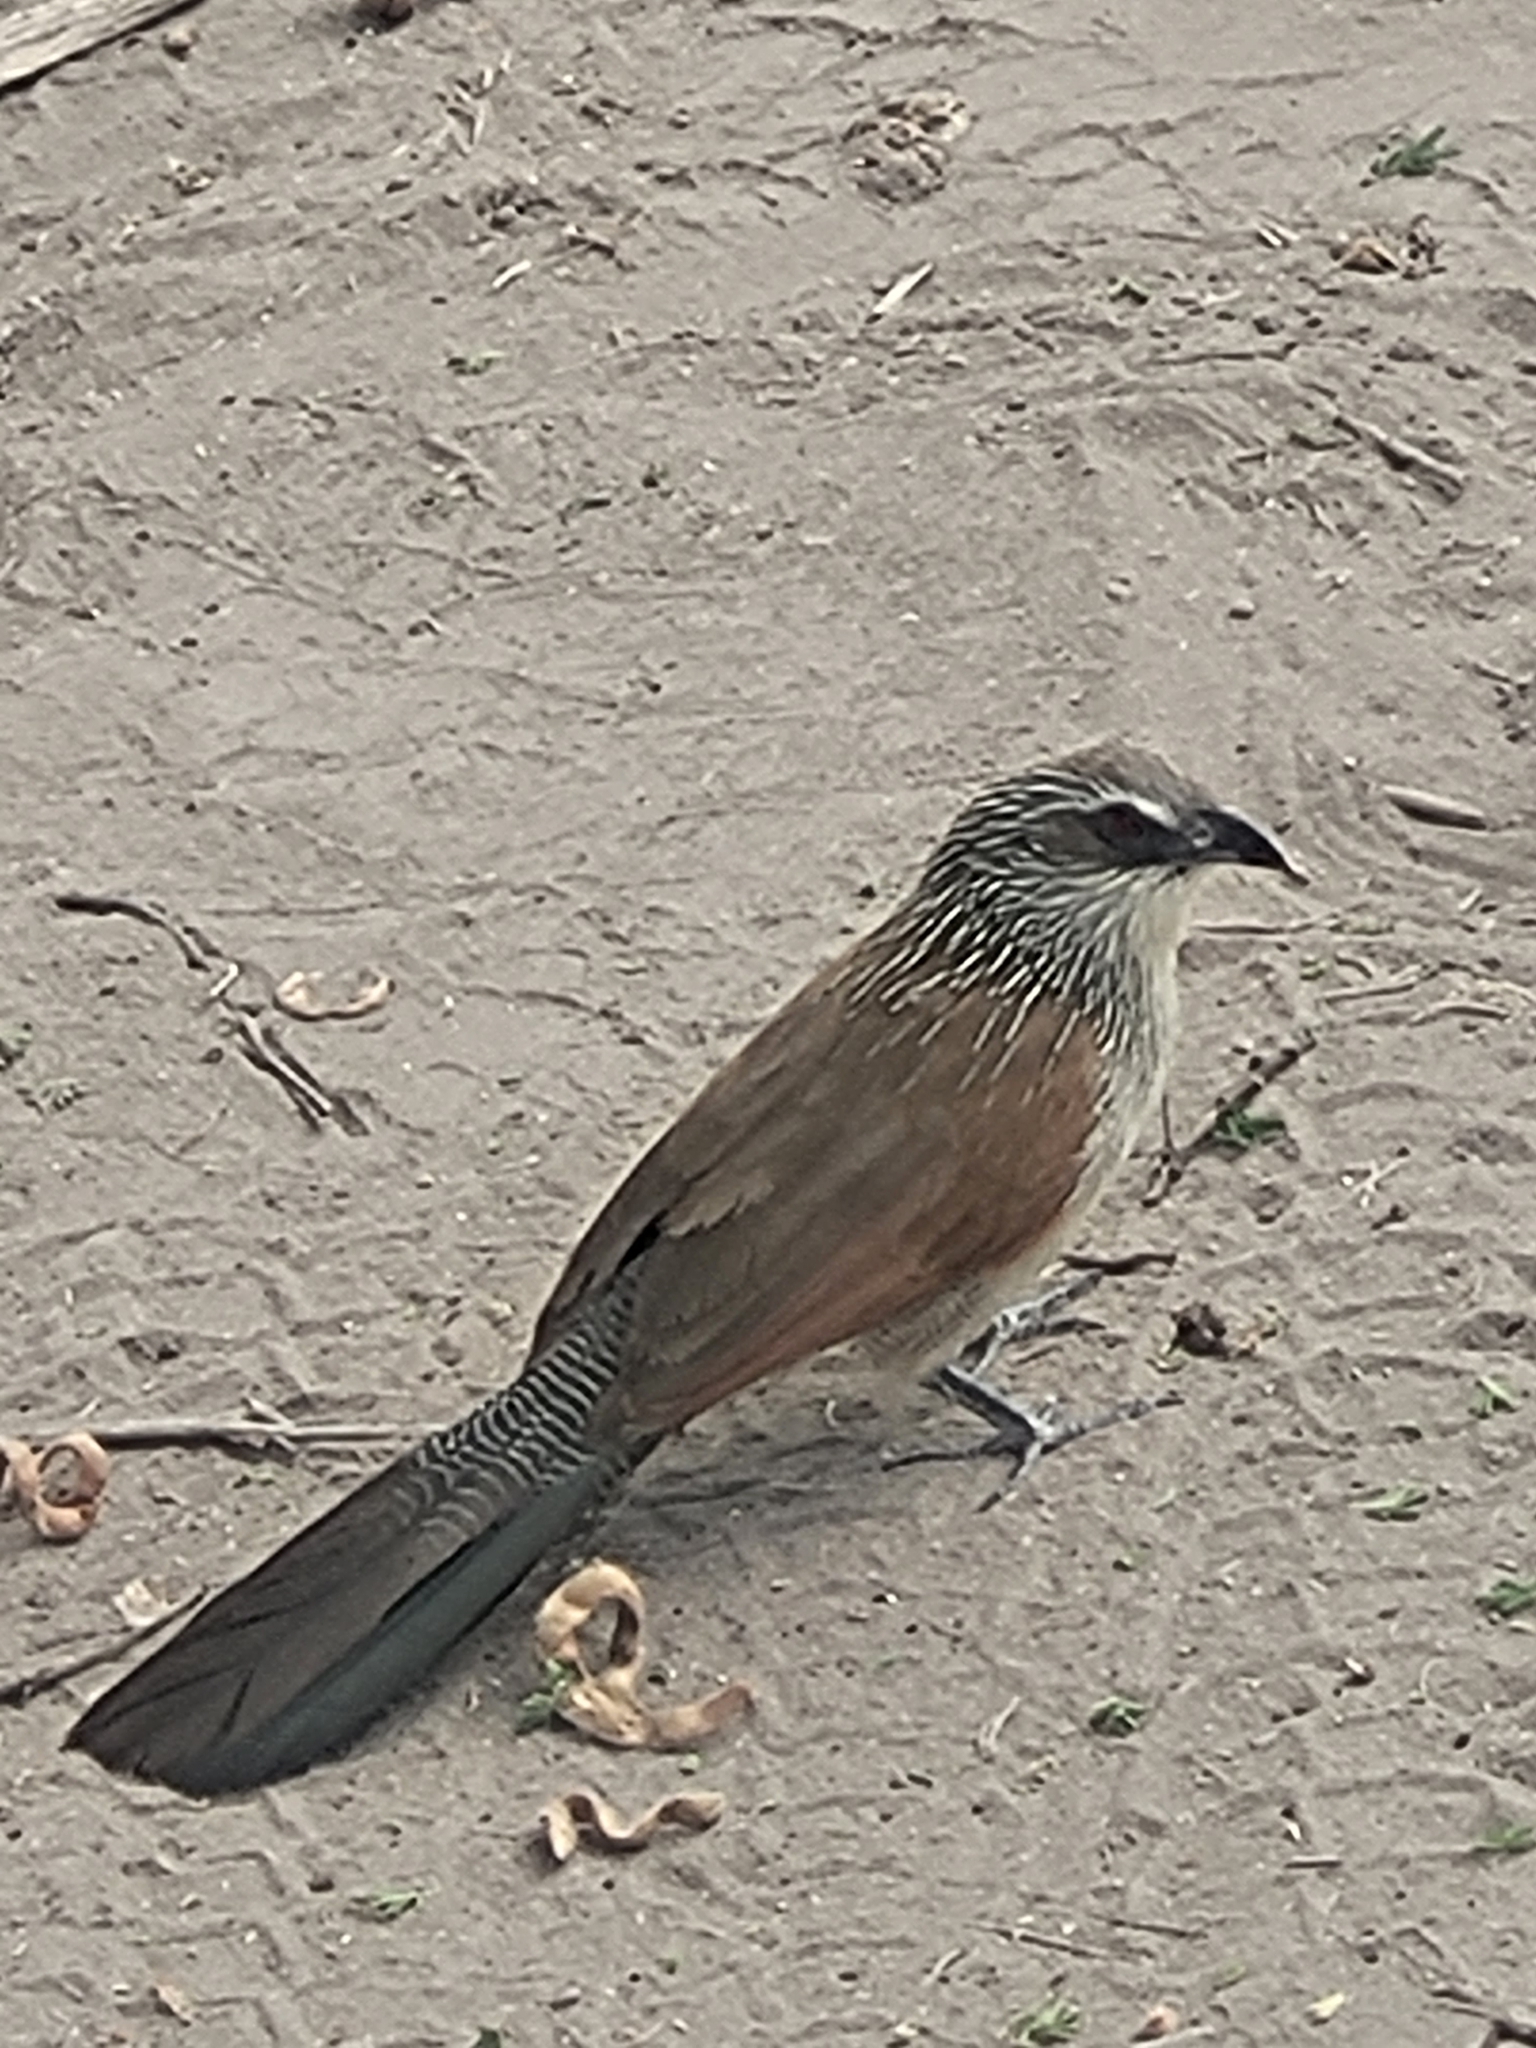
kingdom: Animalia
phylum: Chordata
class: Aves
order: Cuculiformes
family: Cuculidae
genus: Centropus
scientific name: Centropus superciliosus
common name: White-browed coucal
